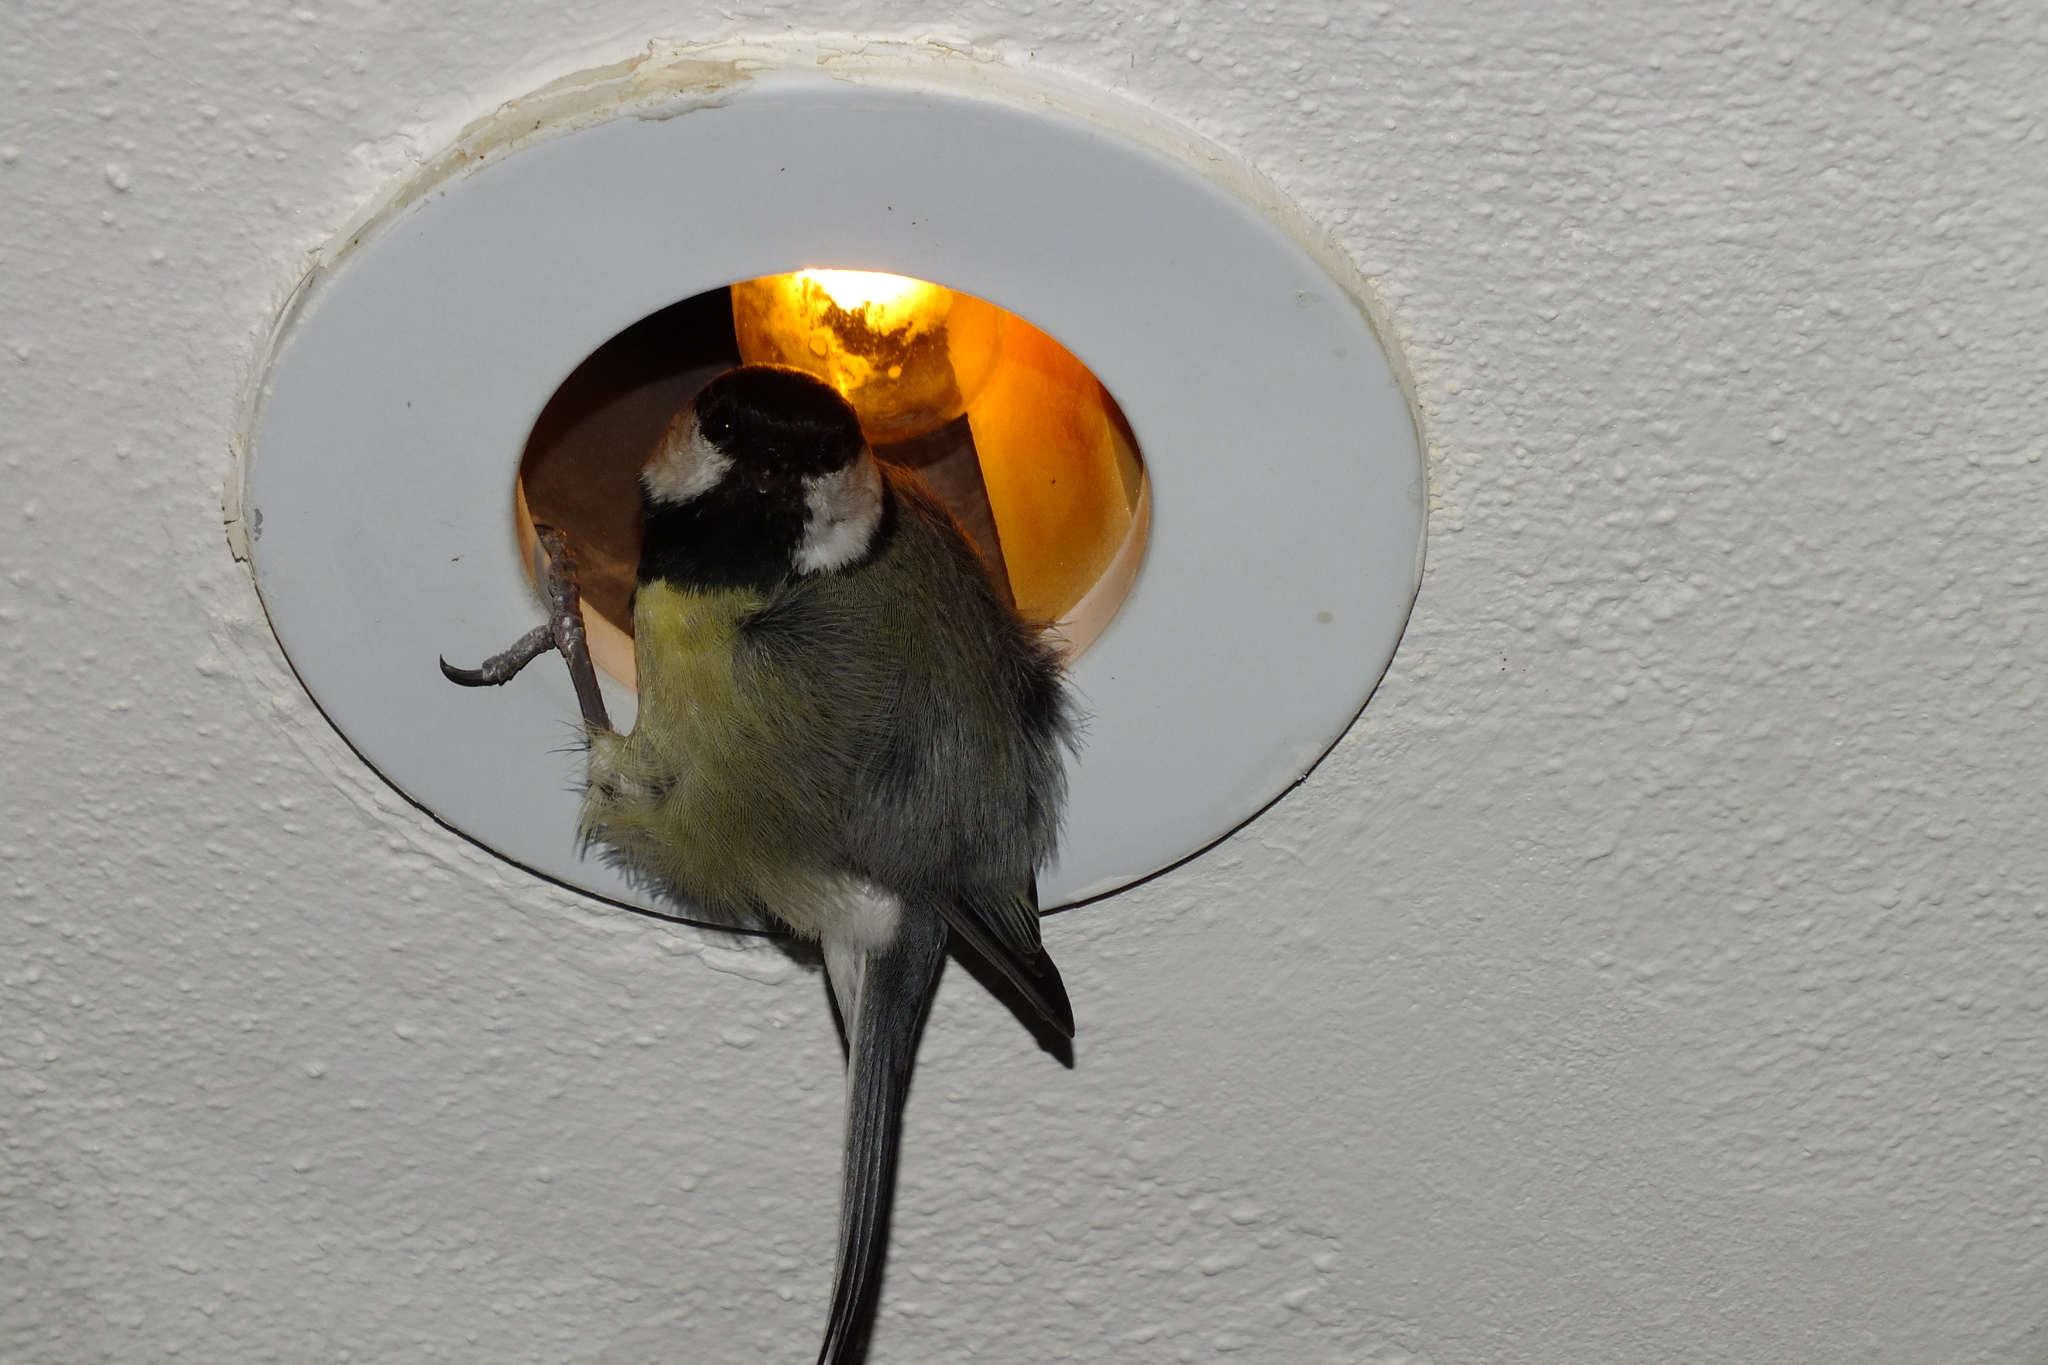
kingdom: Animalia
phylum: Chordata
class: Aves
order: Passeriformes
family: Paridae
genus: Parus
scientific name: Parus major
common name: Great tit
